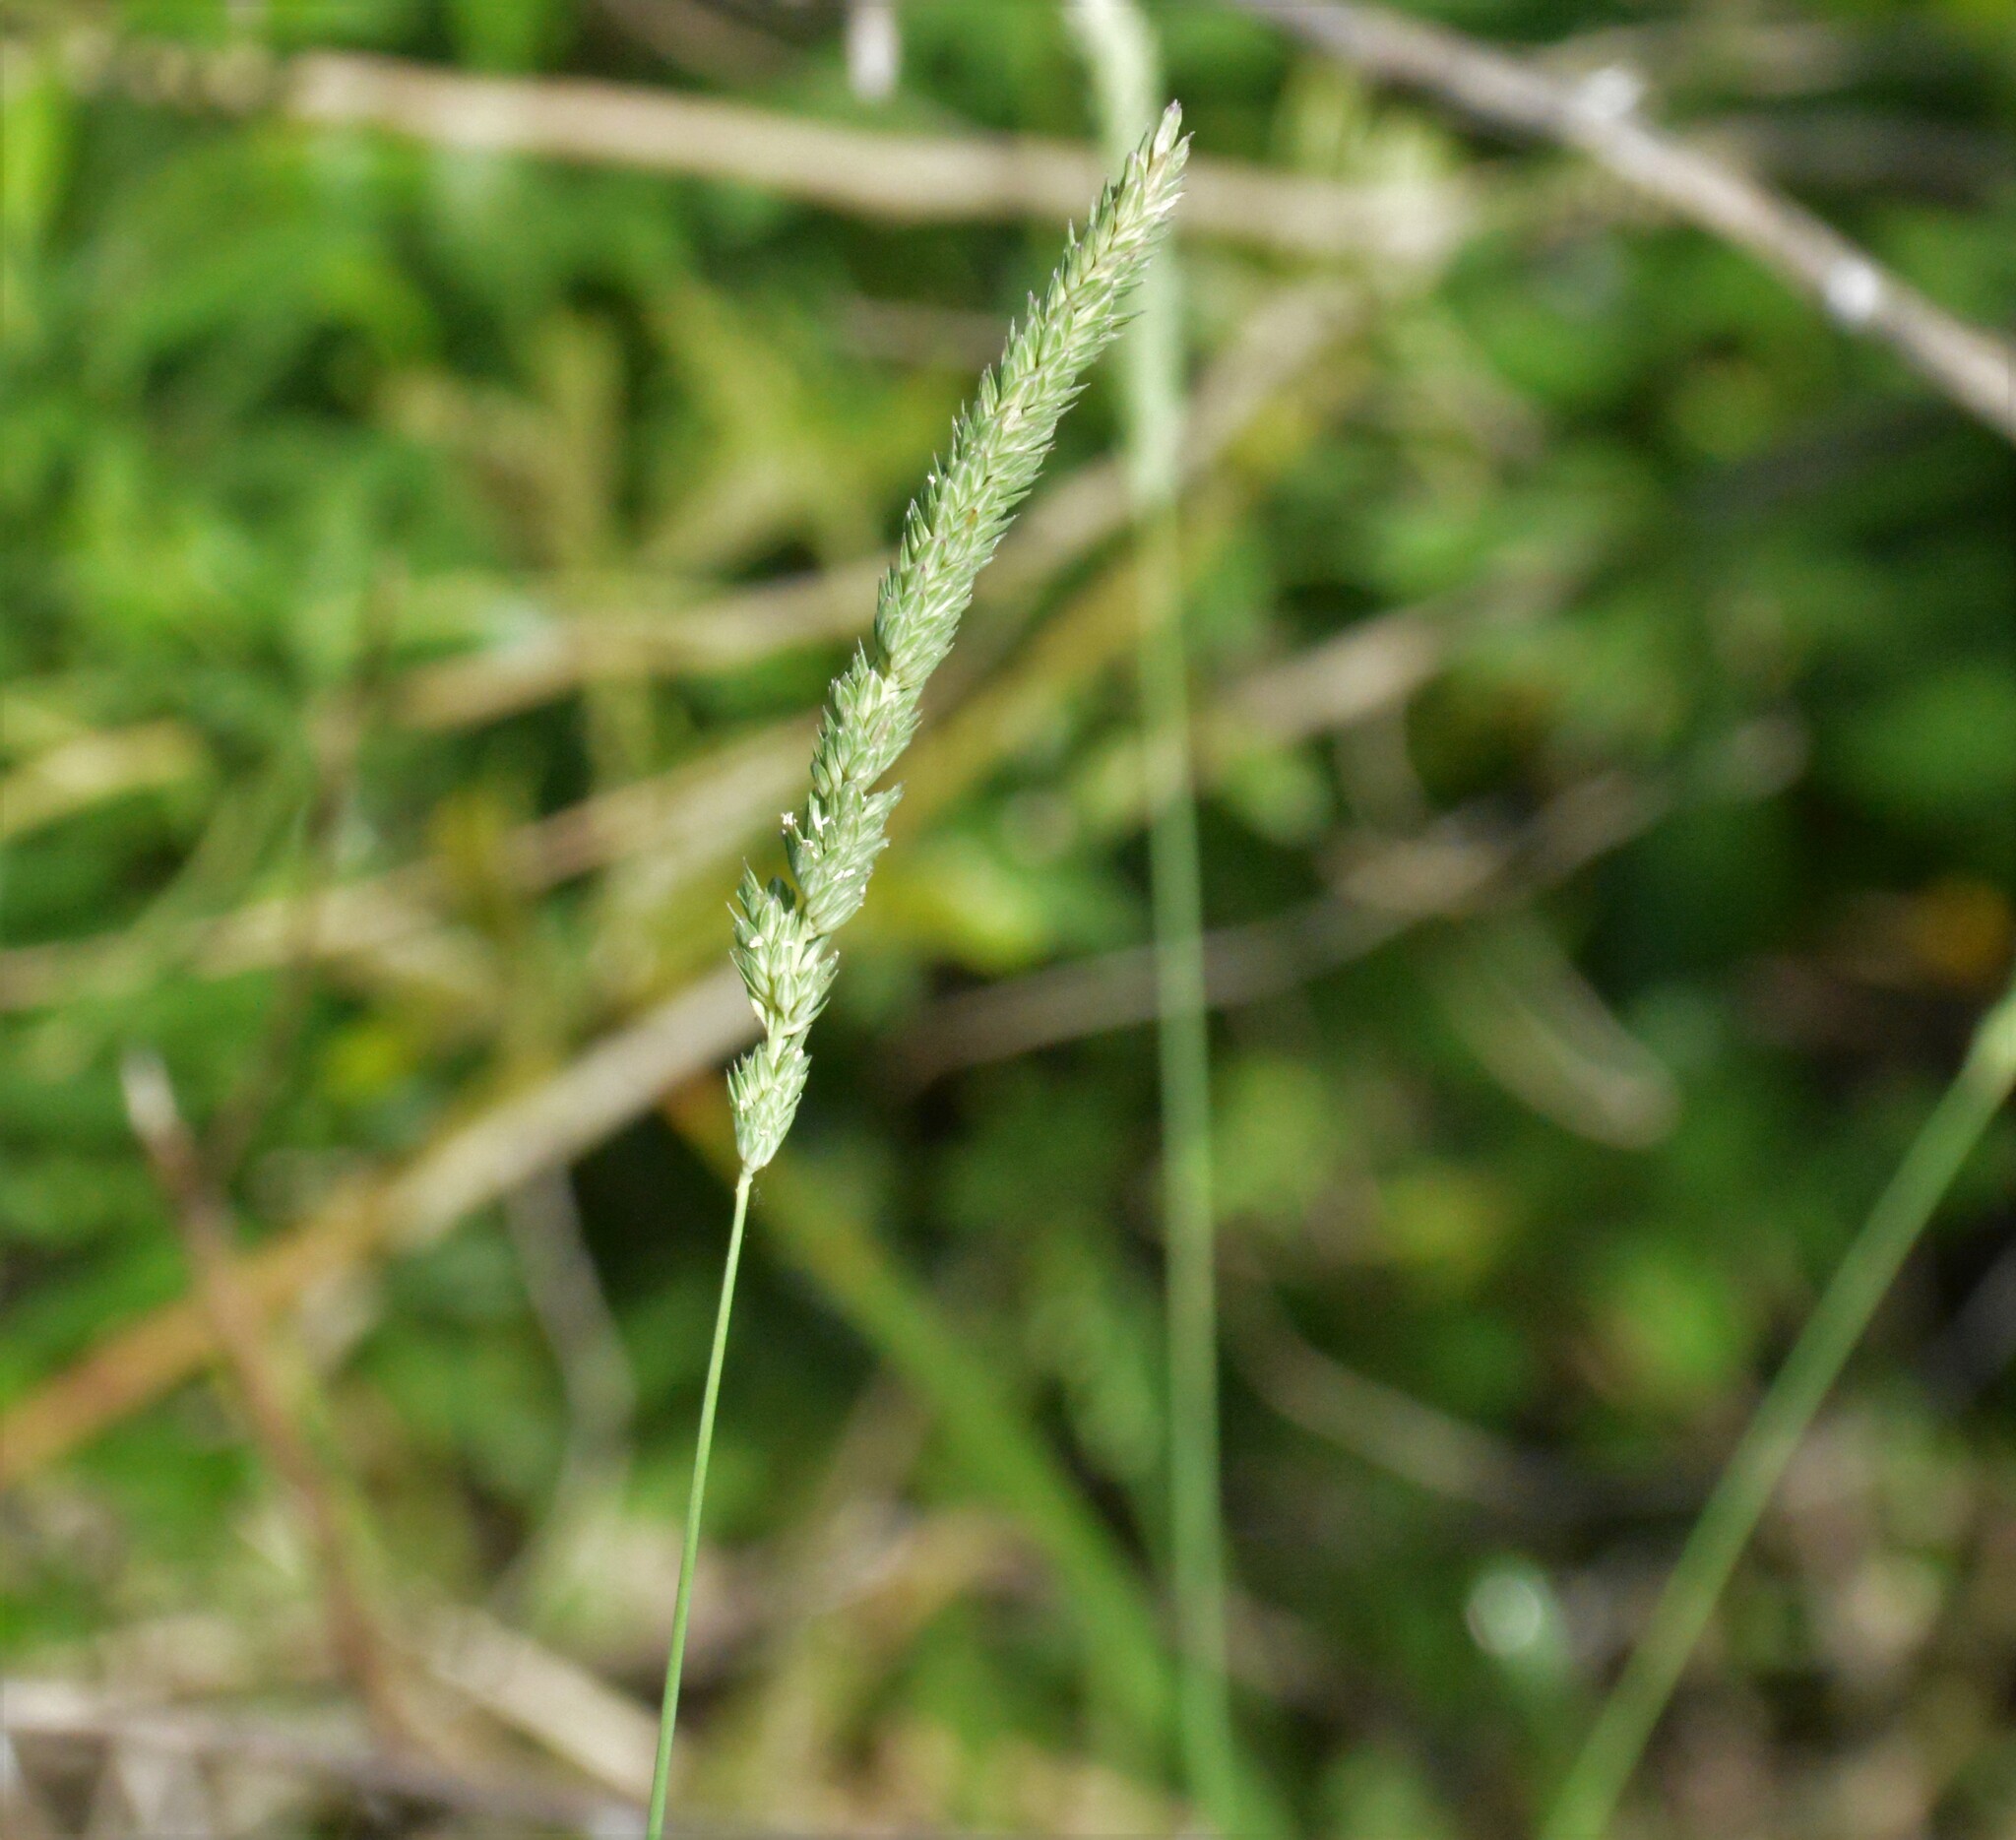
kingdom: Plantae
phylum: Tracheophyta
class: Liliopsida
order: Poales
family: Poaceae
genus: Phalaris
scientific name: Phalaris angusta
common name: Narrow canary grass
